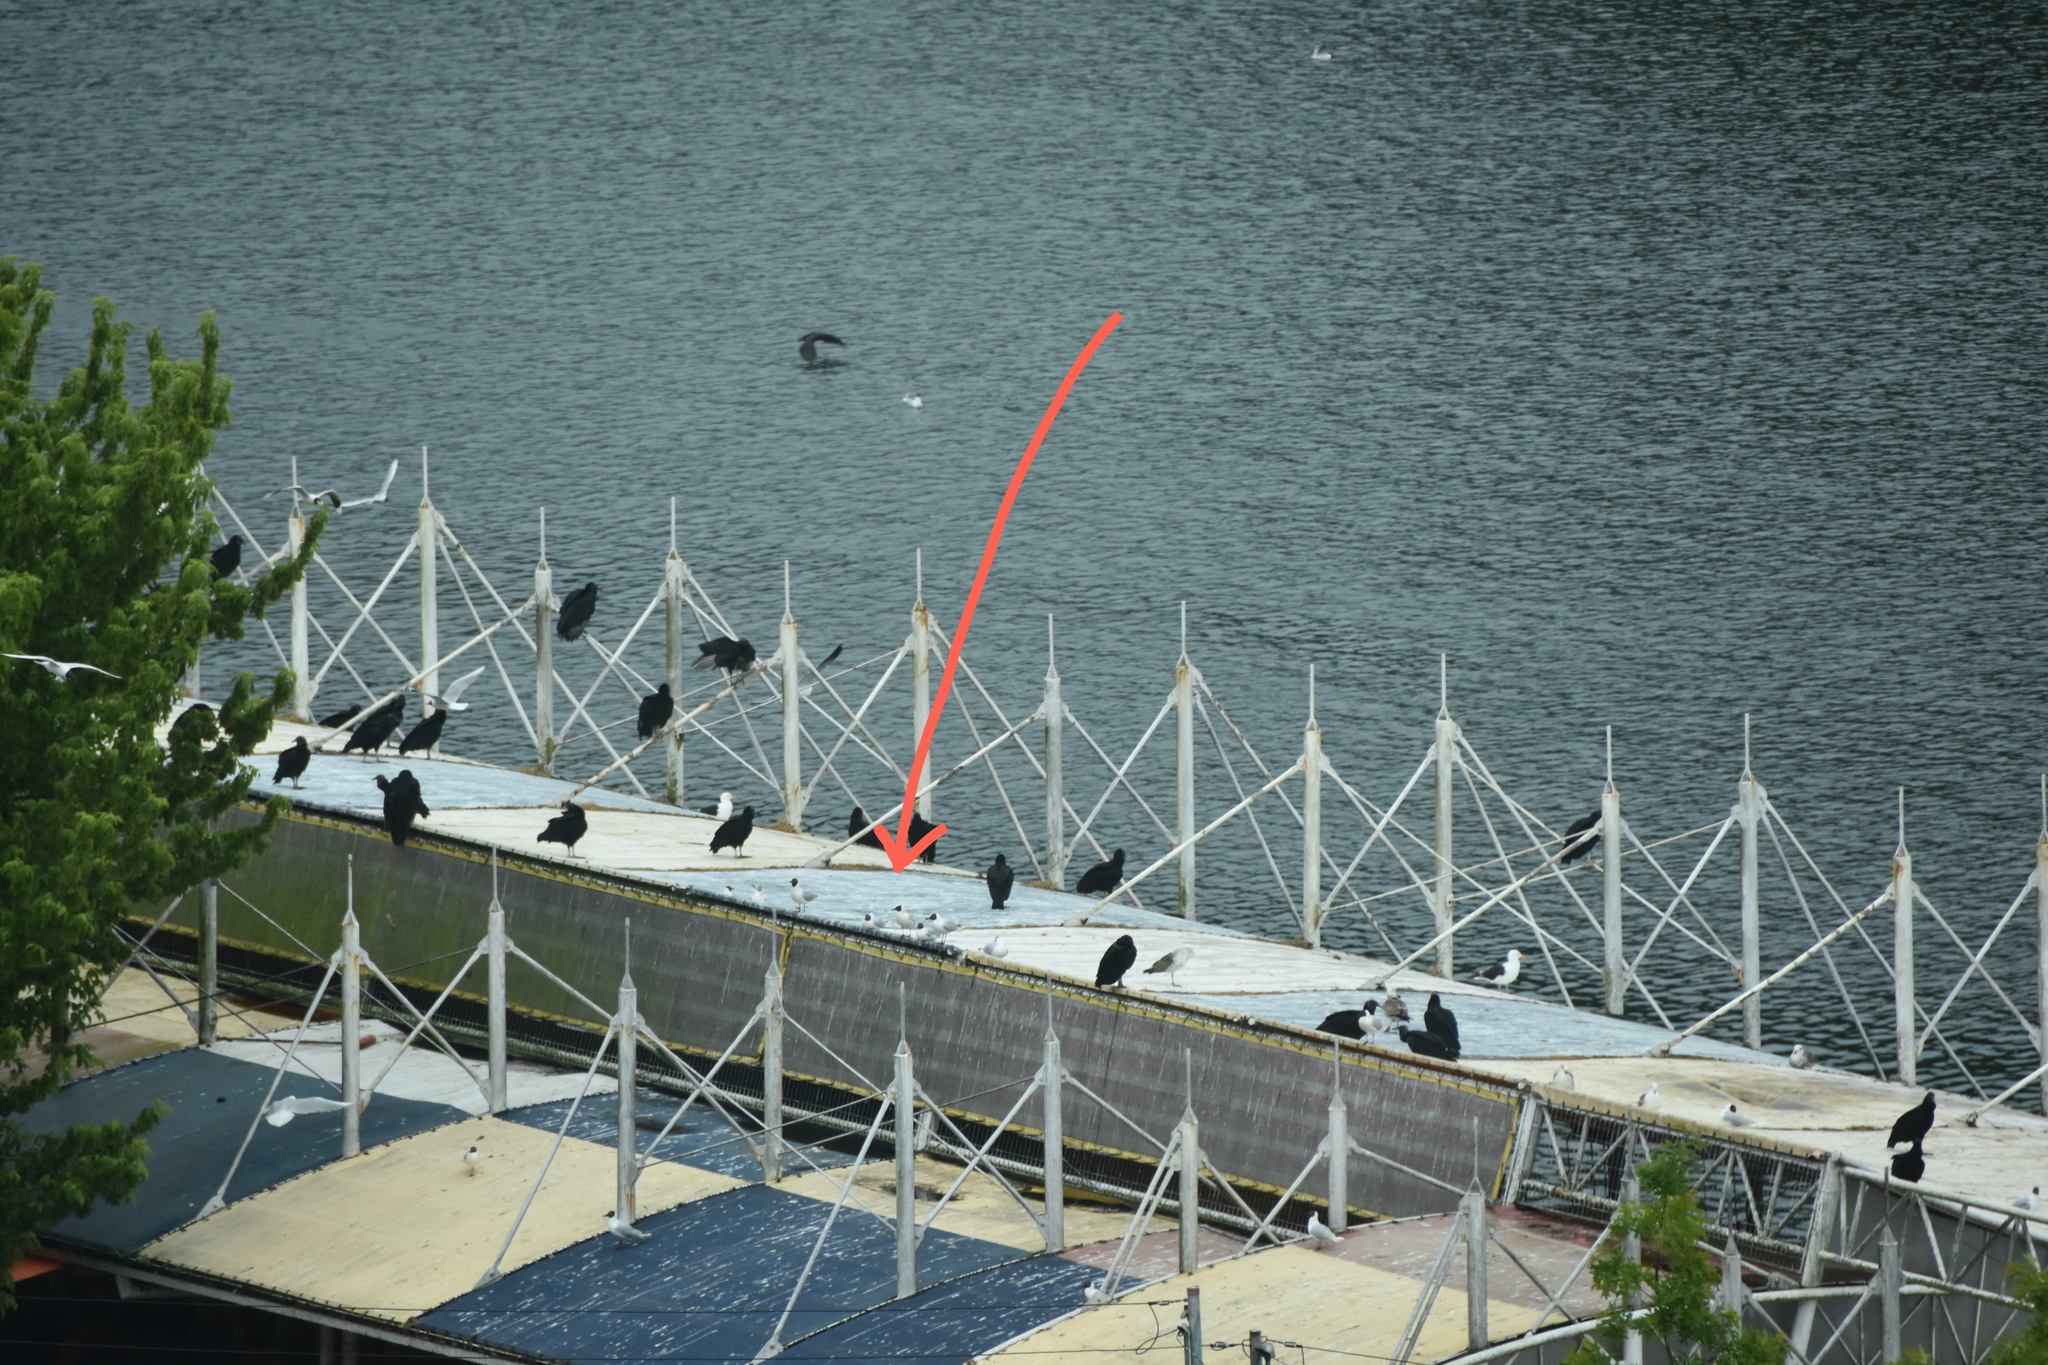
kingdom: Animalia
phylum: Chordata
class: Aves
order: Charadriiformes
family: Laridae
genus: Chroicocephalus
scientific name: Chroicocephalus maculipennis
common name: Brown-hooded gull
